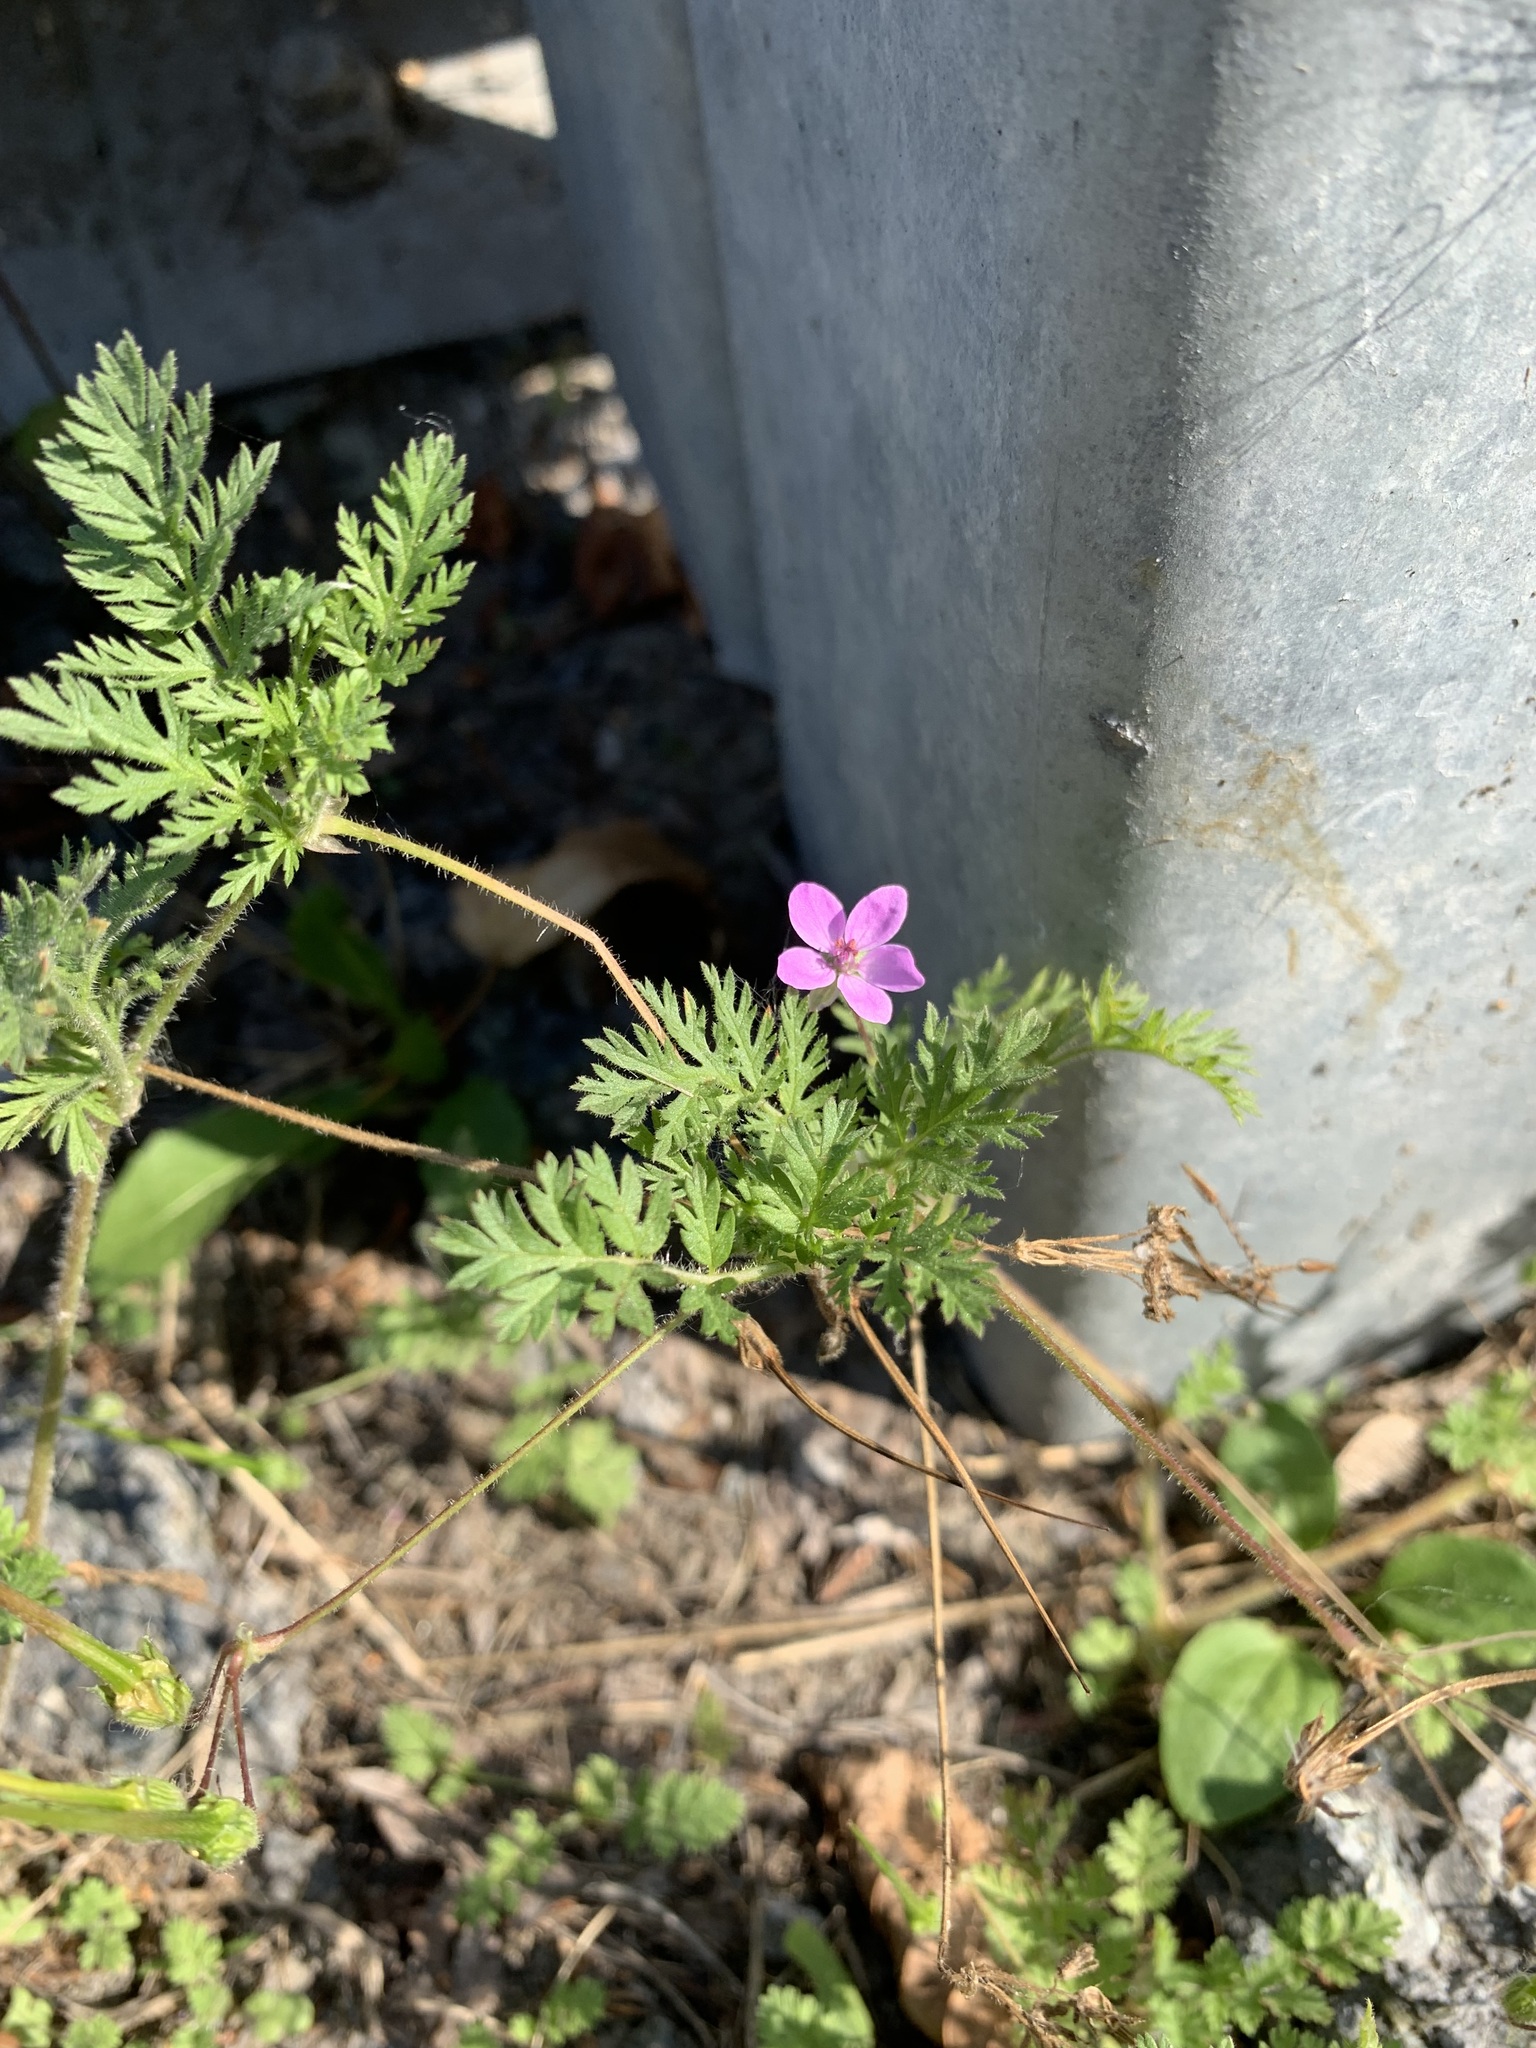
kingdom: Plantae
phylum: Tracheophyta
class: Magnoliopsida
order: Geraniales
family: Geraniaceae
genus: Erodium
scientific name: Erodium cicutarium
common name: Common stork's-bill
